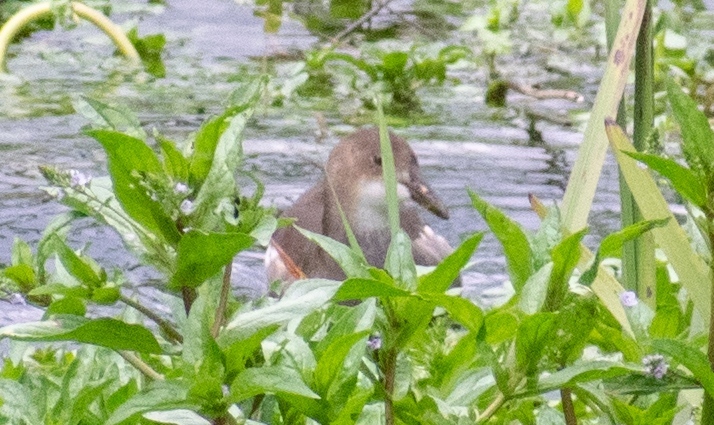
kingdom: Animalia
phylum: Chordata
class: Aves
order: Gruiformes
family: Rallidae
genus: Gallinula
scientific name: Gallinula chloropus
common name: Common moorhen
